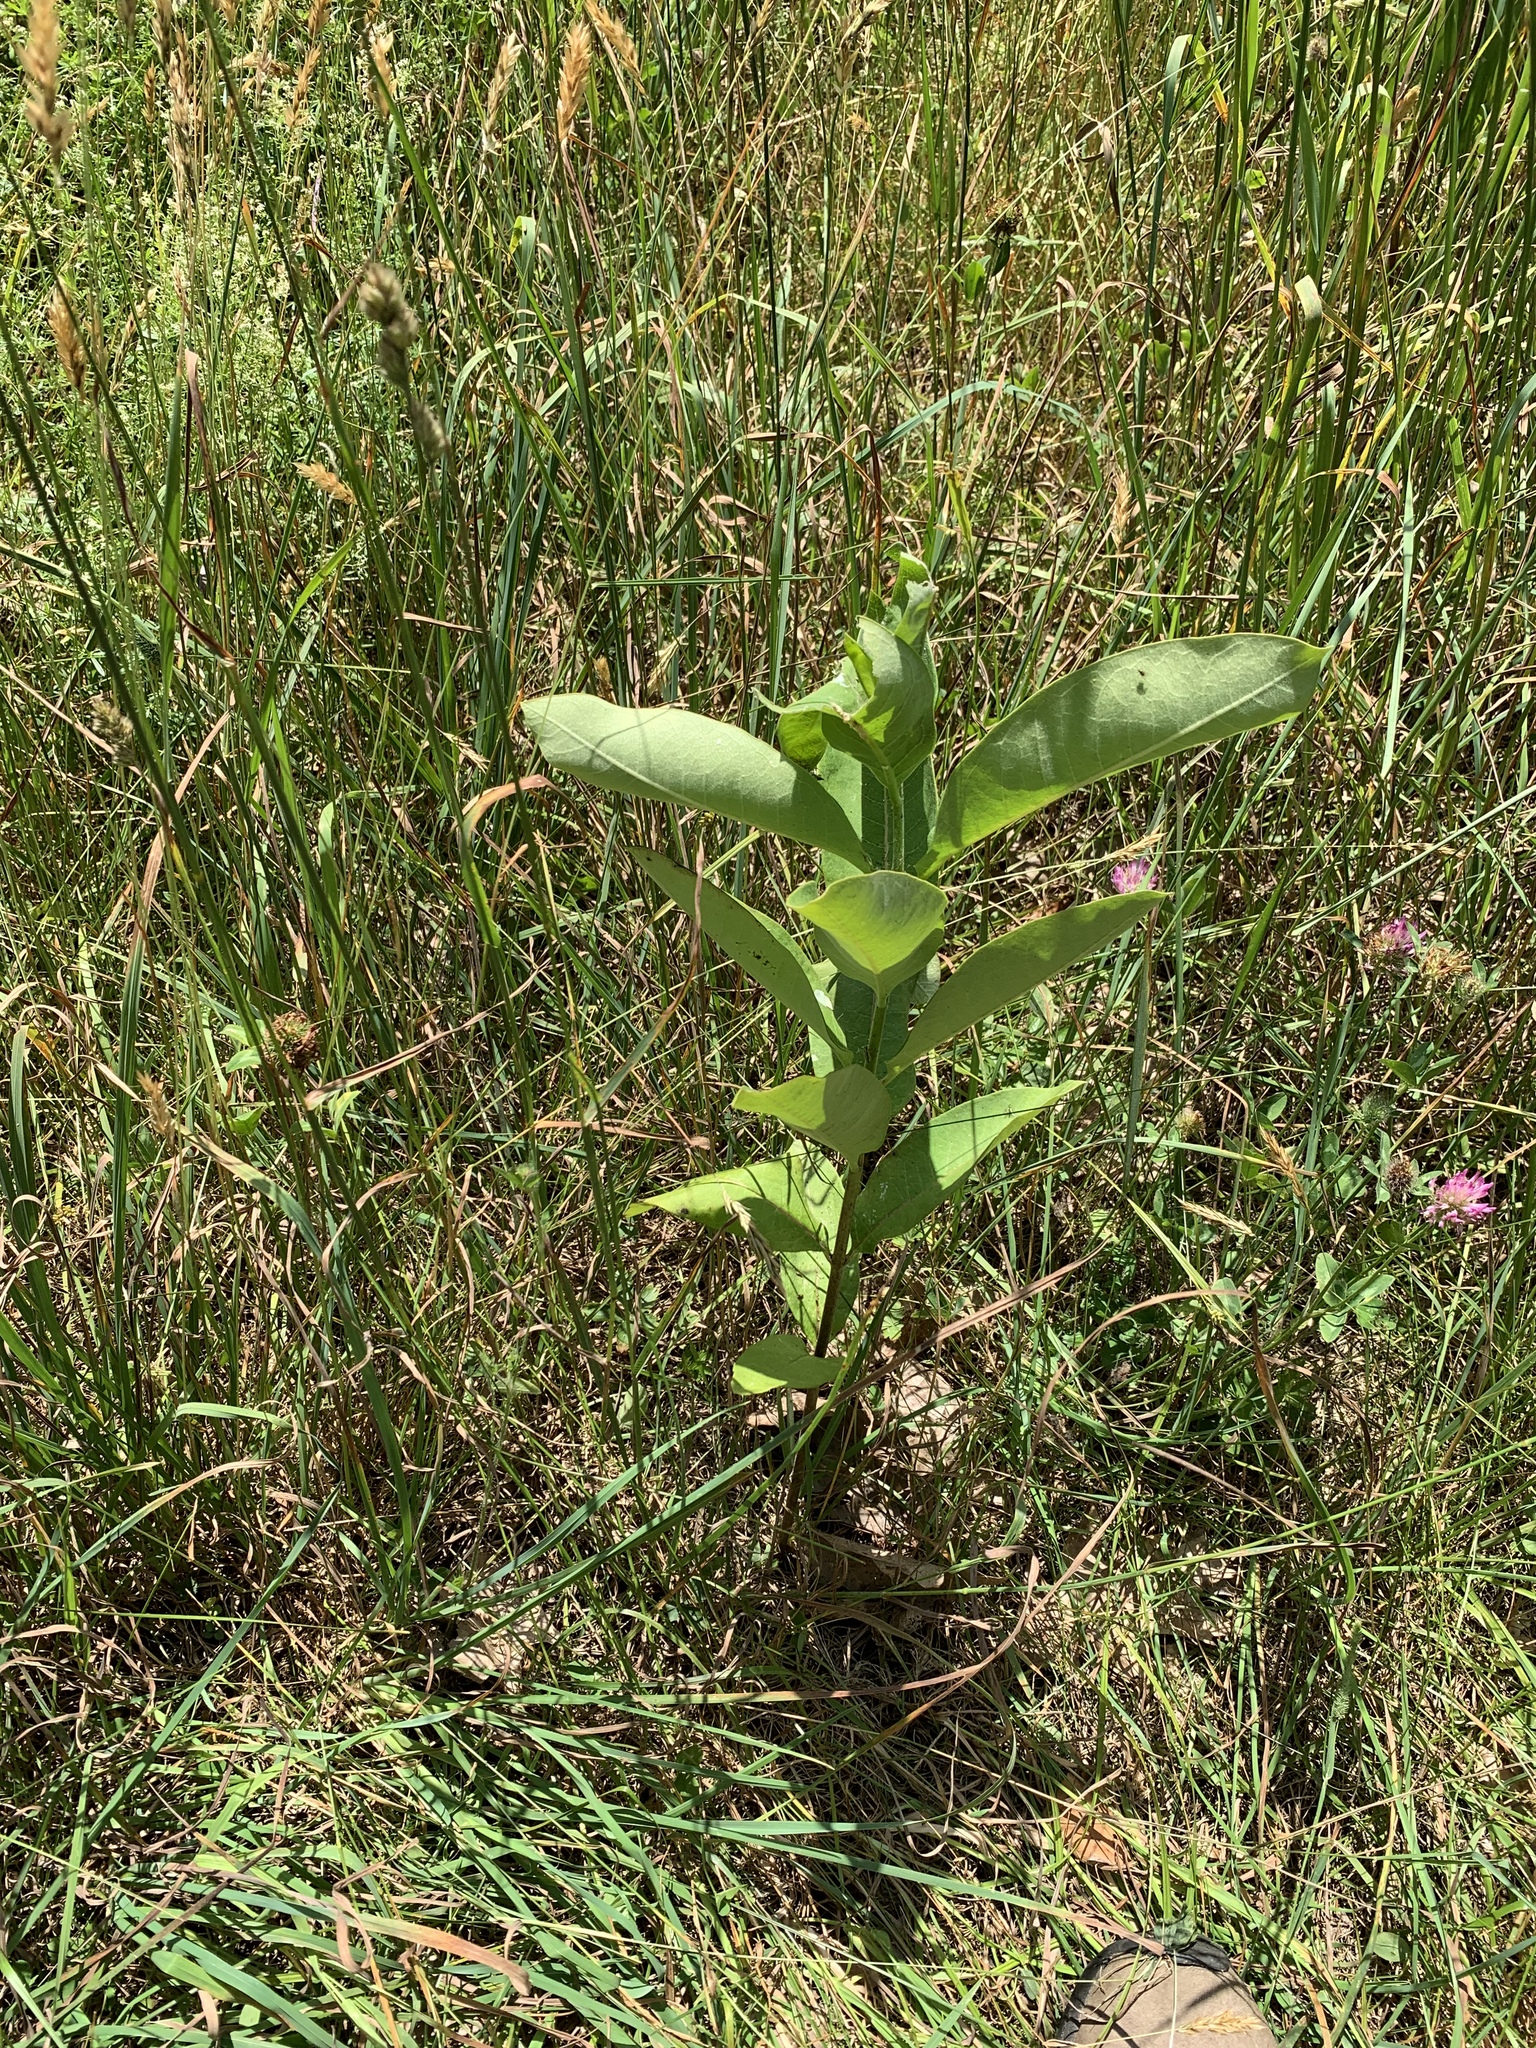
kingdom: Plantae
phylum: Tracheophyta
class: Magnoliopsida
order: Gentianales
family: Apocynaceae
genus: Asclepias
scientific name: Asclepias syriaca
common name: Common milkweed
